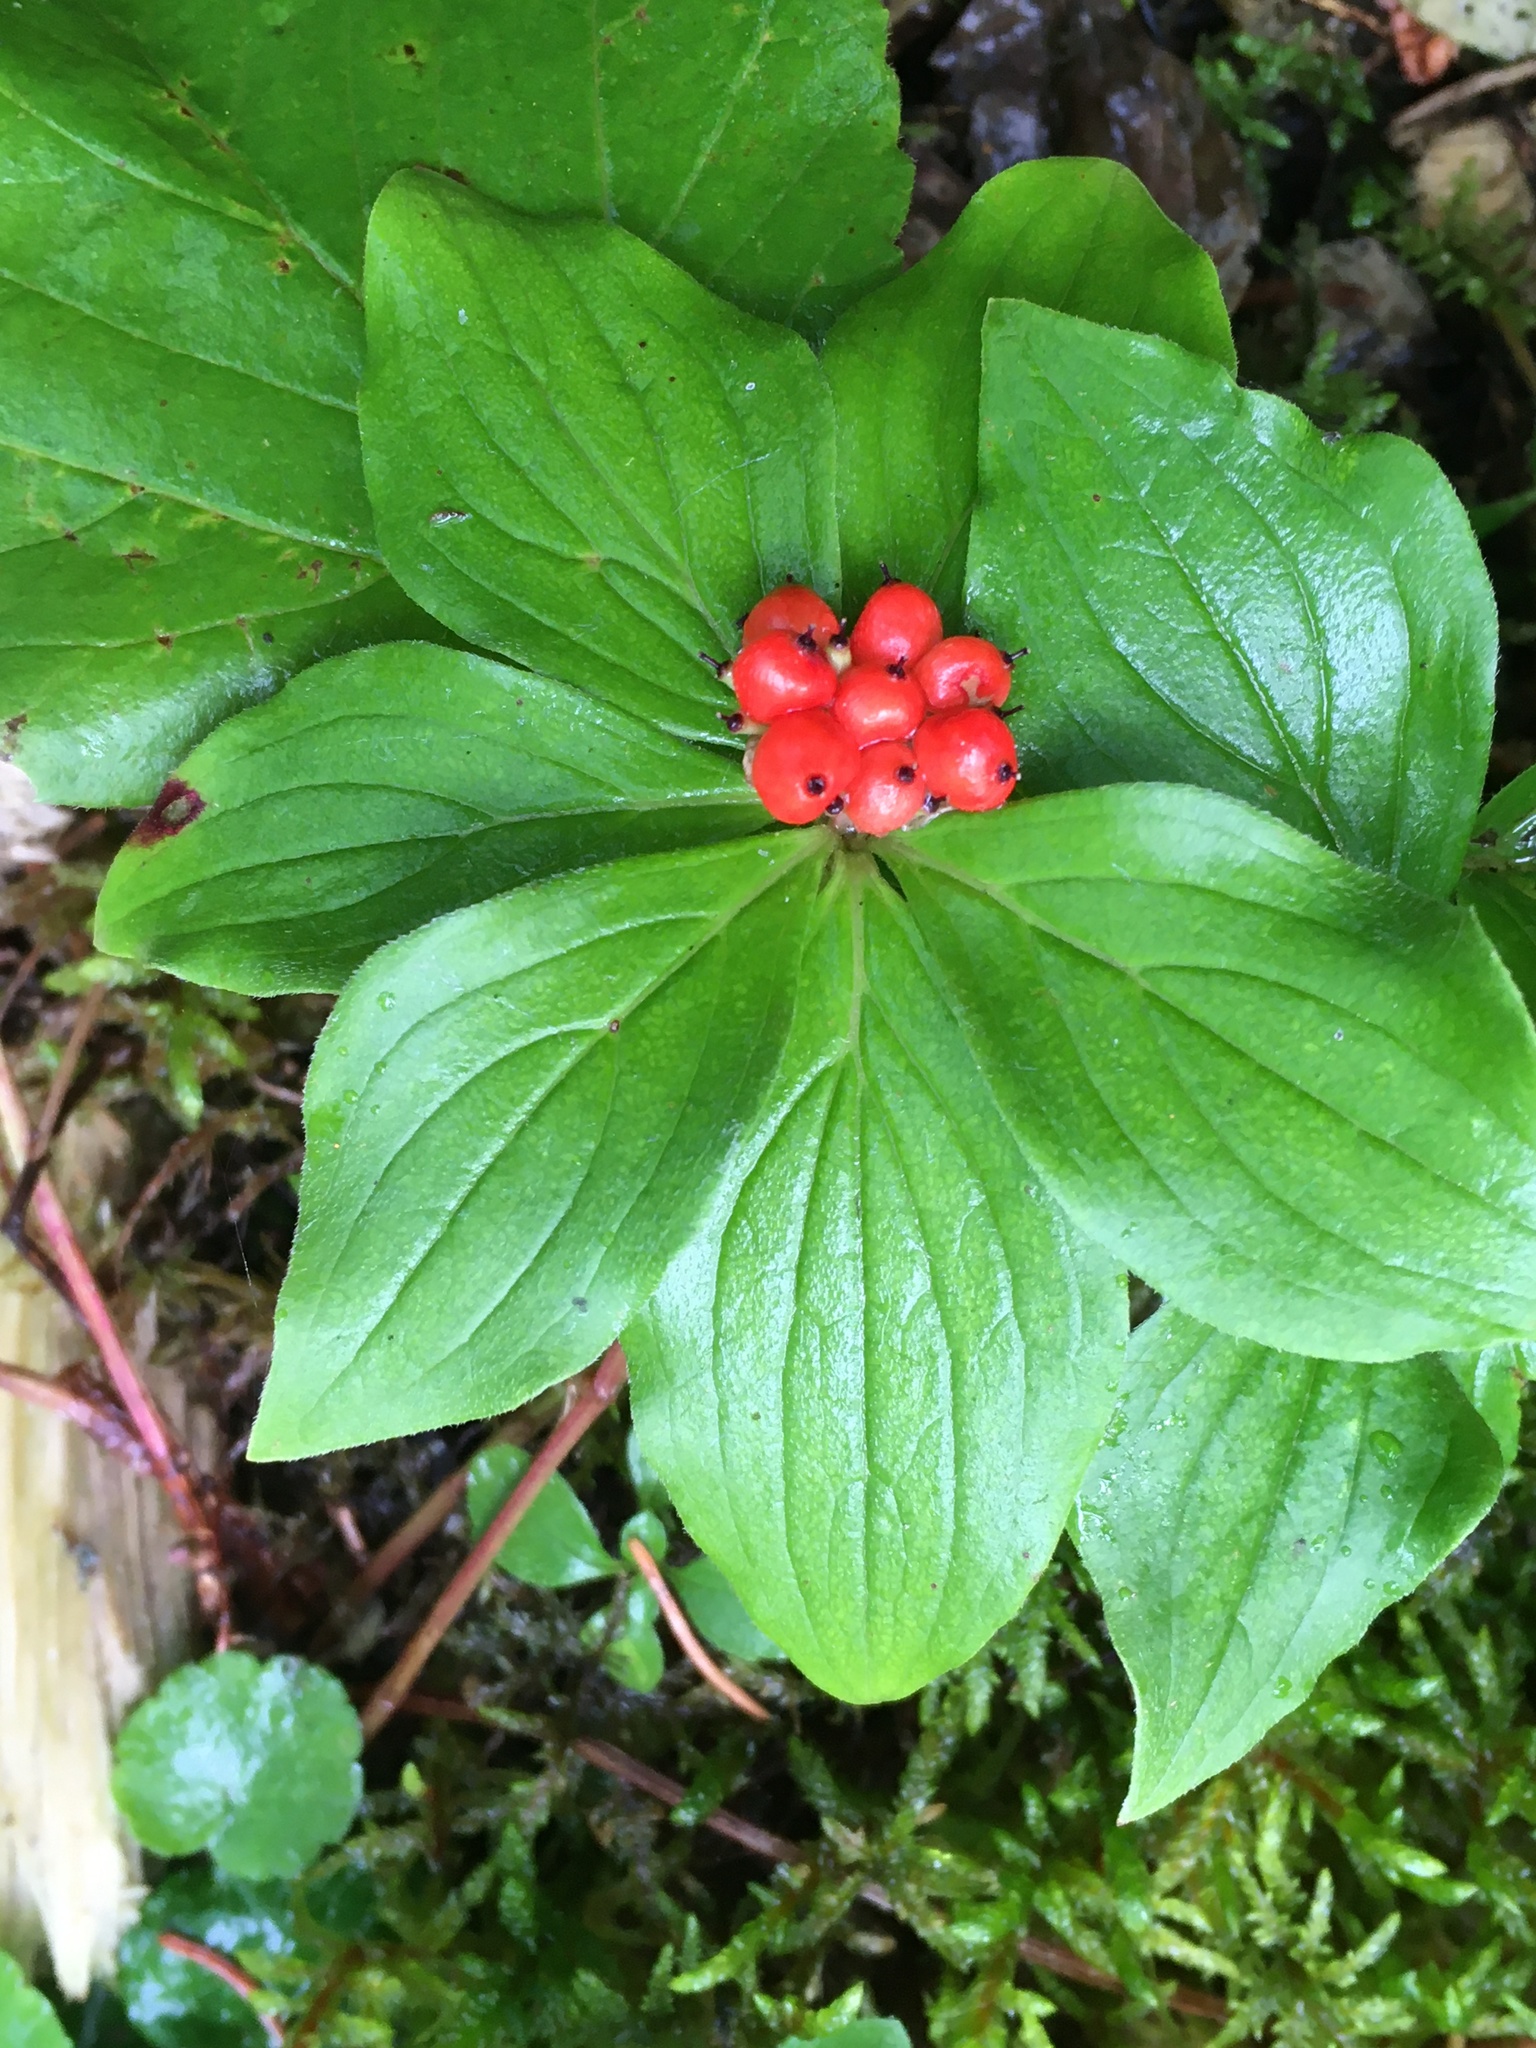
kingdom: Plantae
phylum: Tracheophyta
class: Magnoliopsida
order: Cornales
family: Cornaceae
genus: Cornus
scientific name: Cornus canadensis
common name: Creeping dogwood
